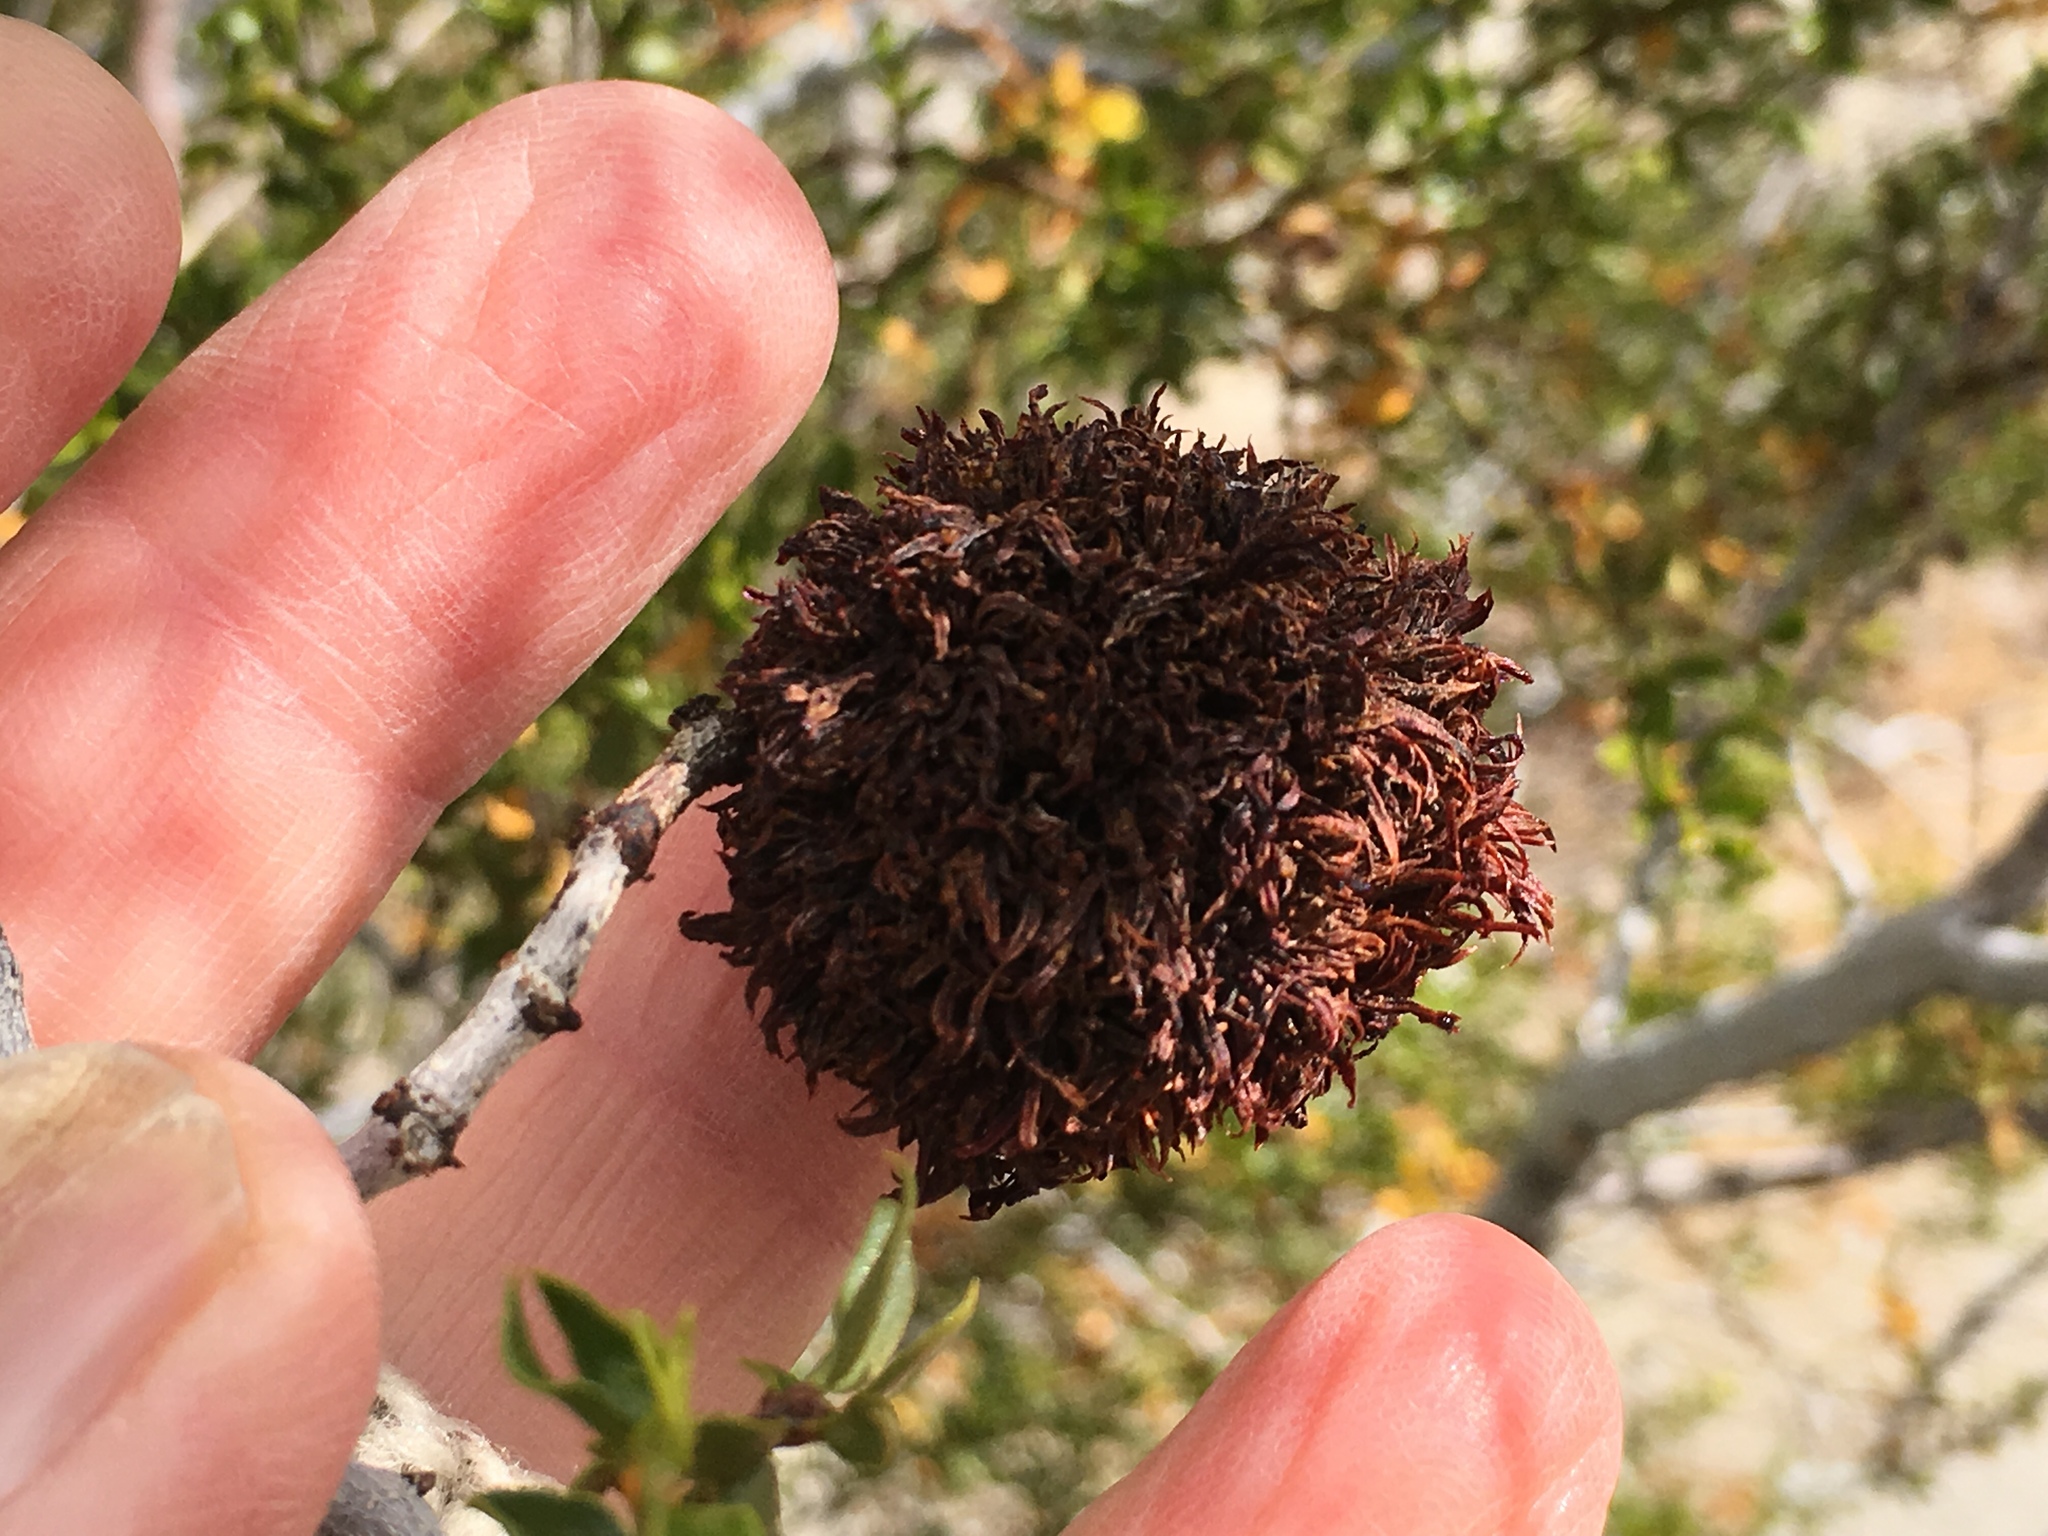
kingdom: Animalia
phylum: Arthropoda
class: Insecta
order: Diptera
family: Cecidomyiidae
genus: Asphondylia
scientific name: Asphondylia auripila
